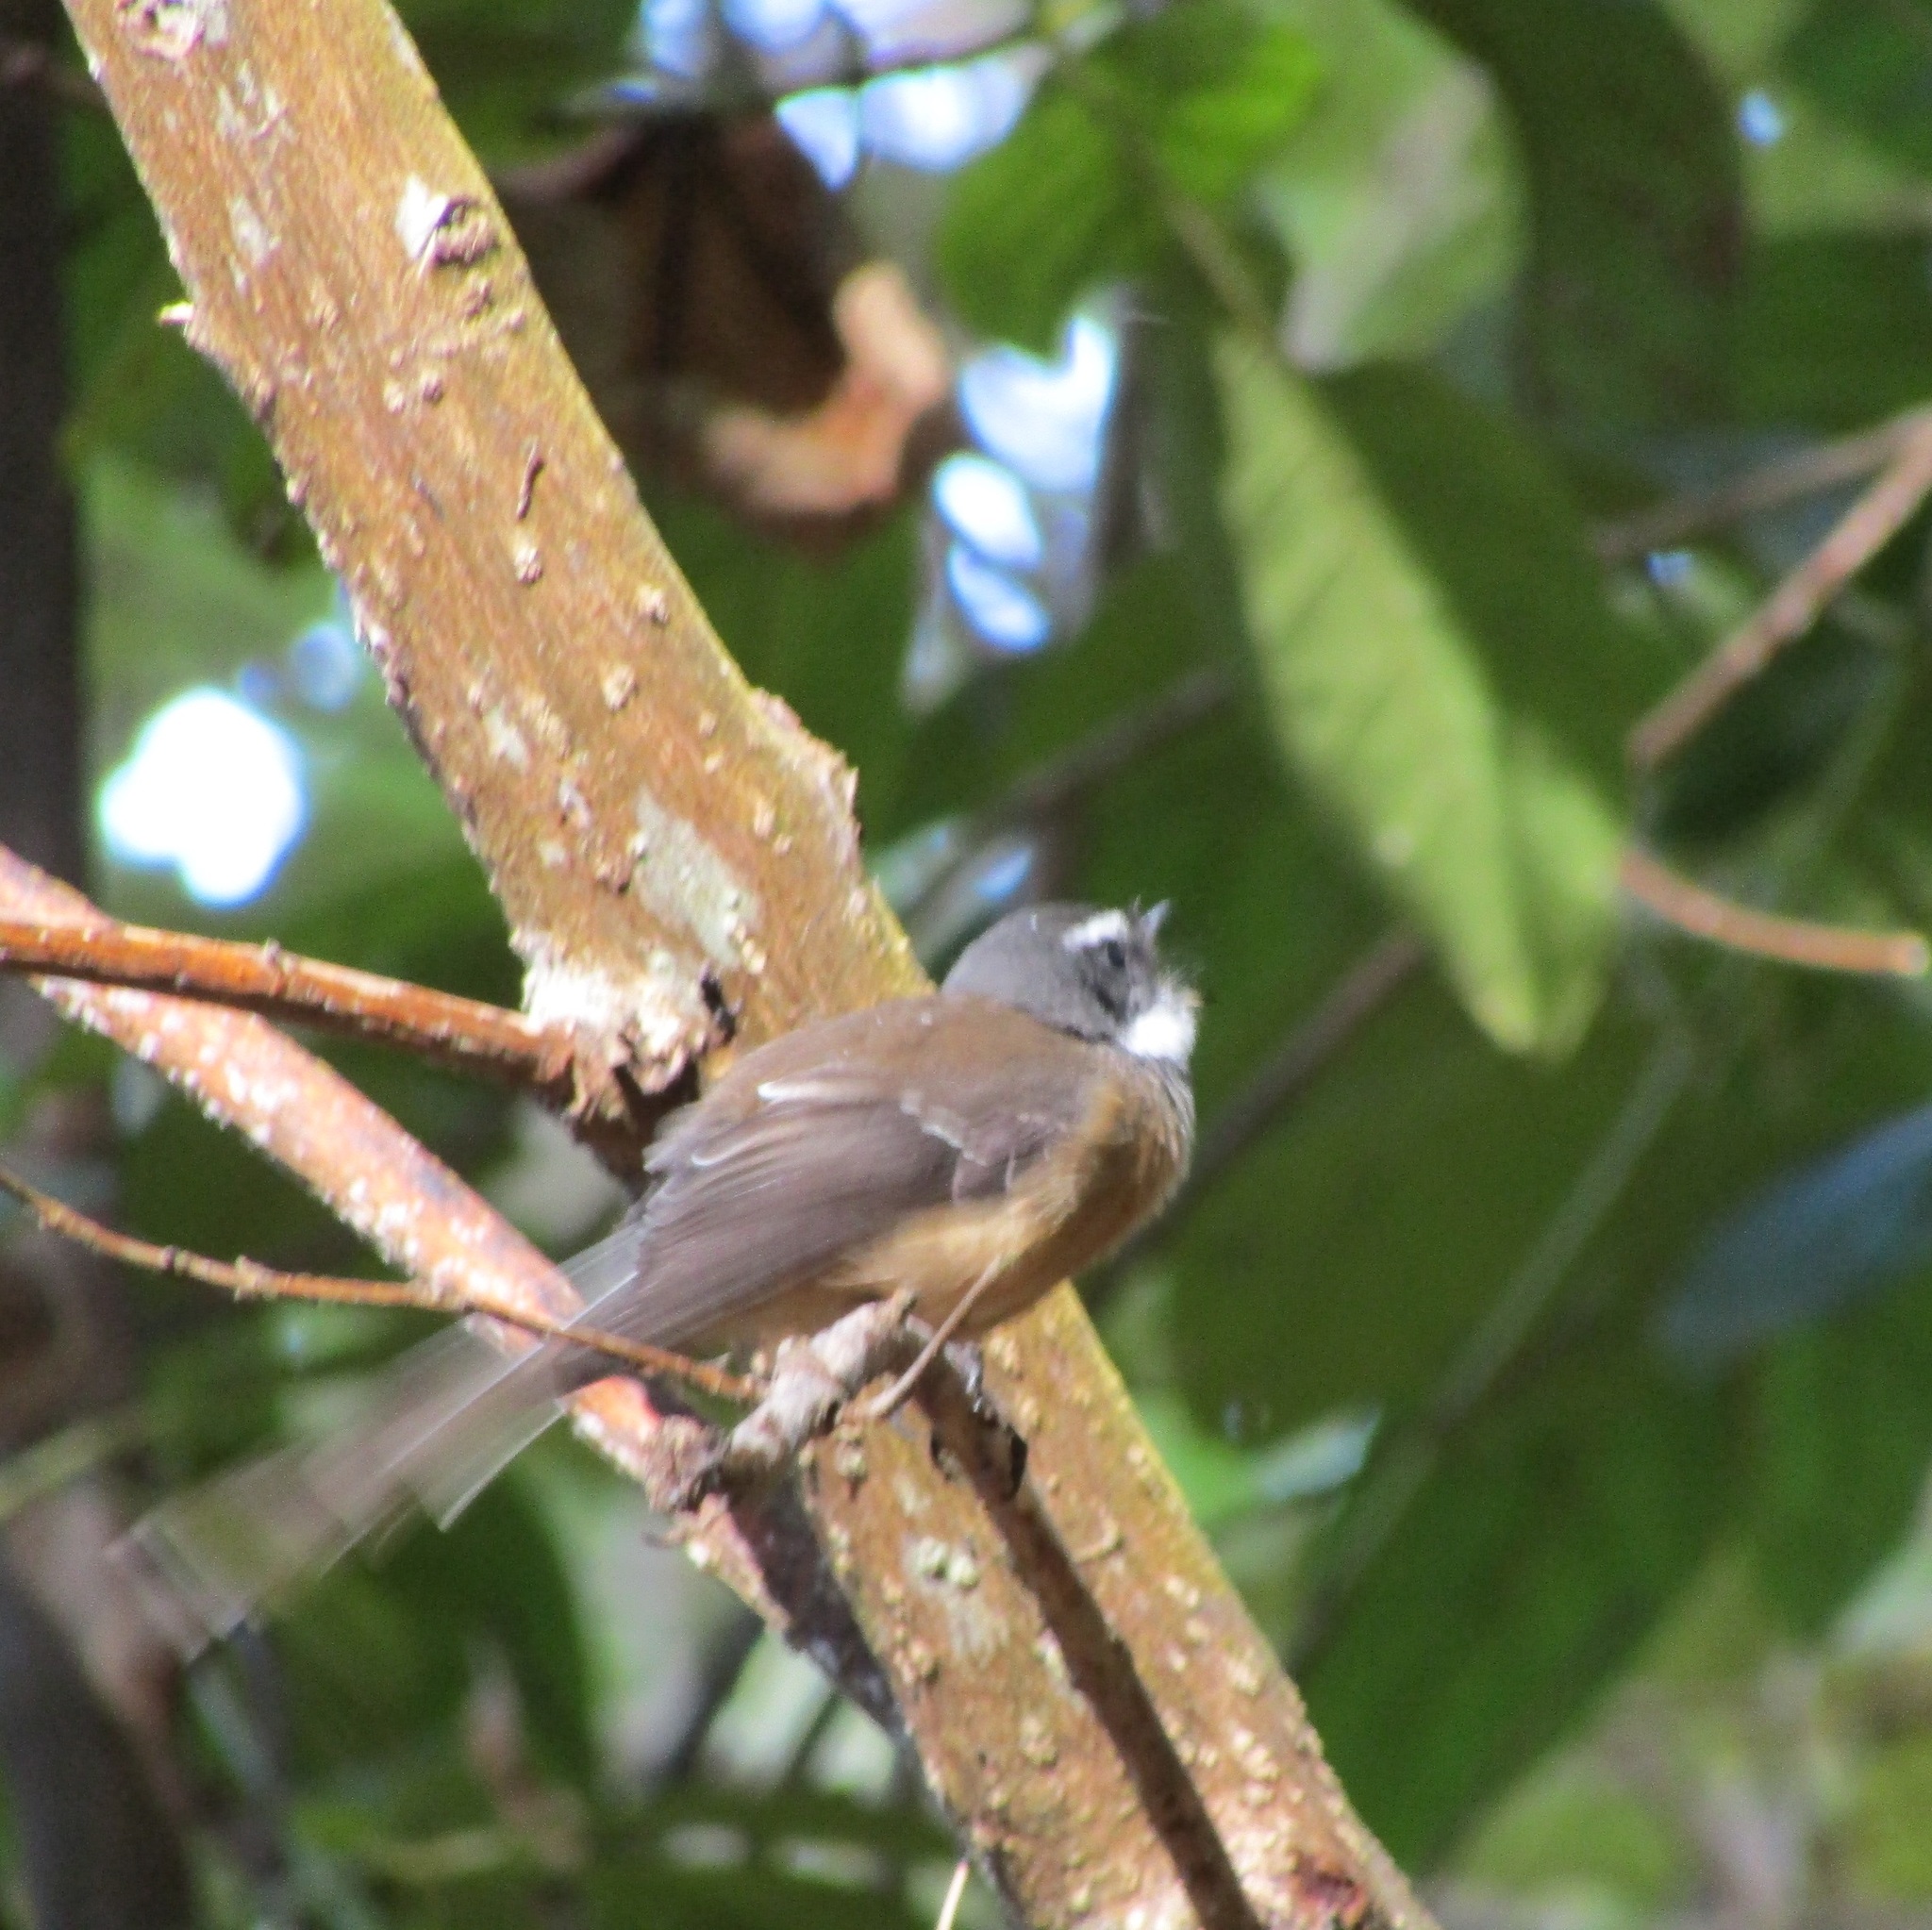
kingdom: Animalia
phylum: Chordata
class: Aves
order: Passeriformes
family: Rhipiduridae
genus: Rhipidura
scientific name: Rhipidura fuliginosa
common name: New zealand fantail
